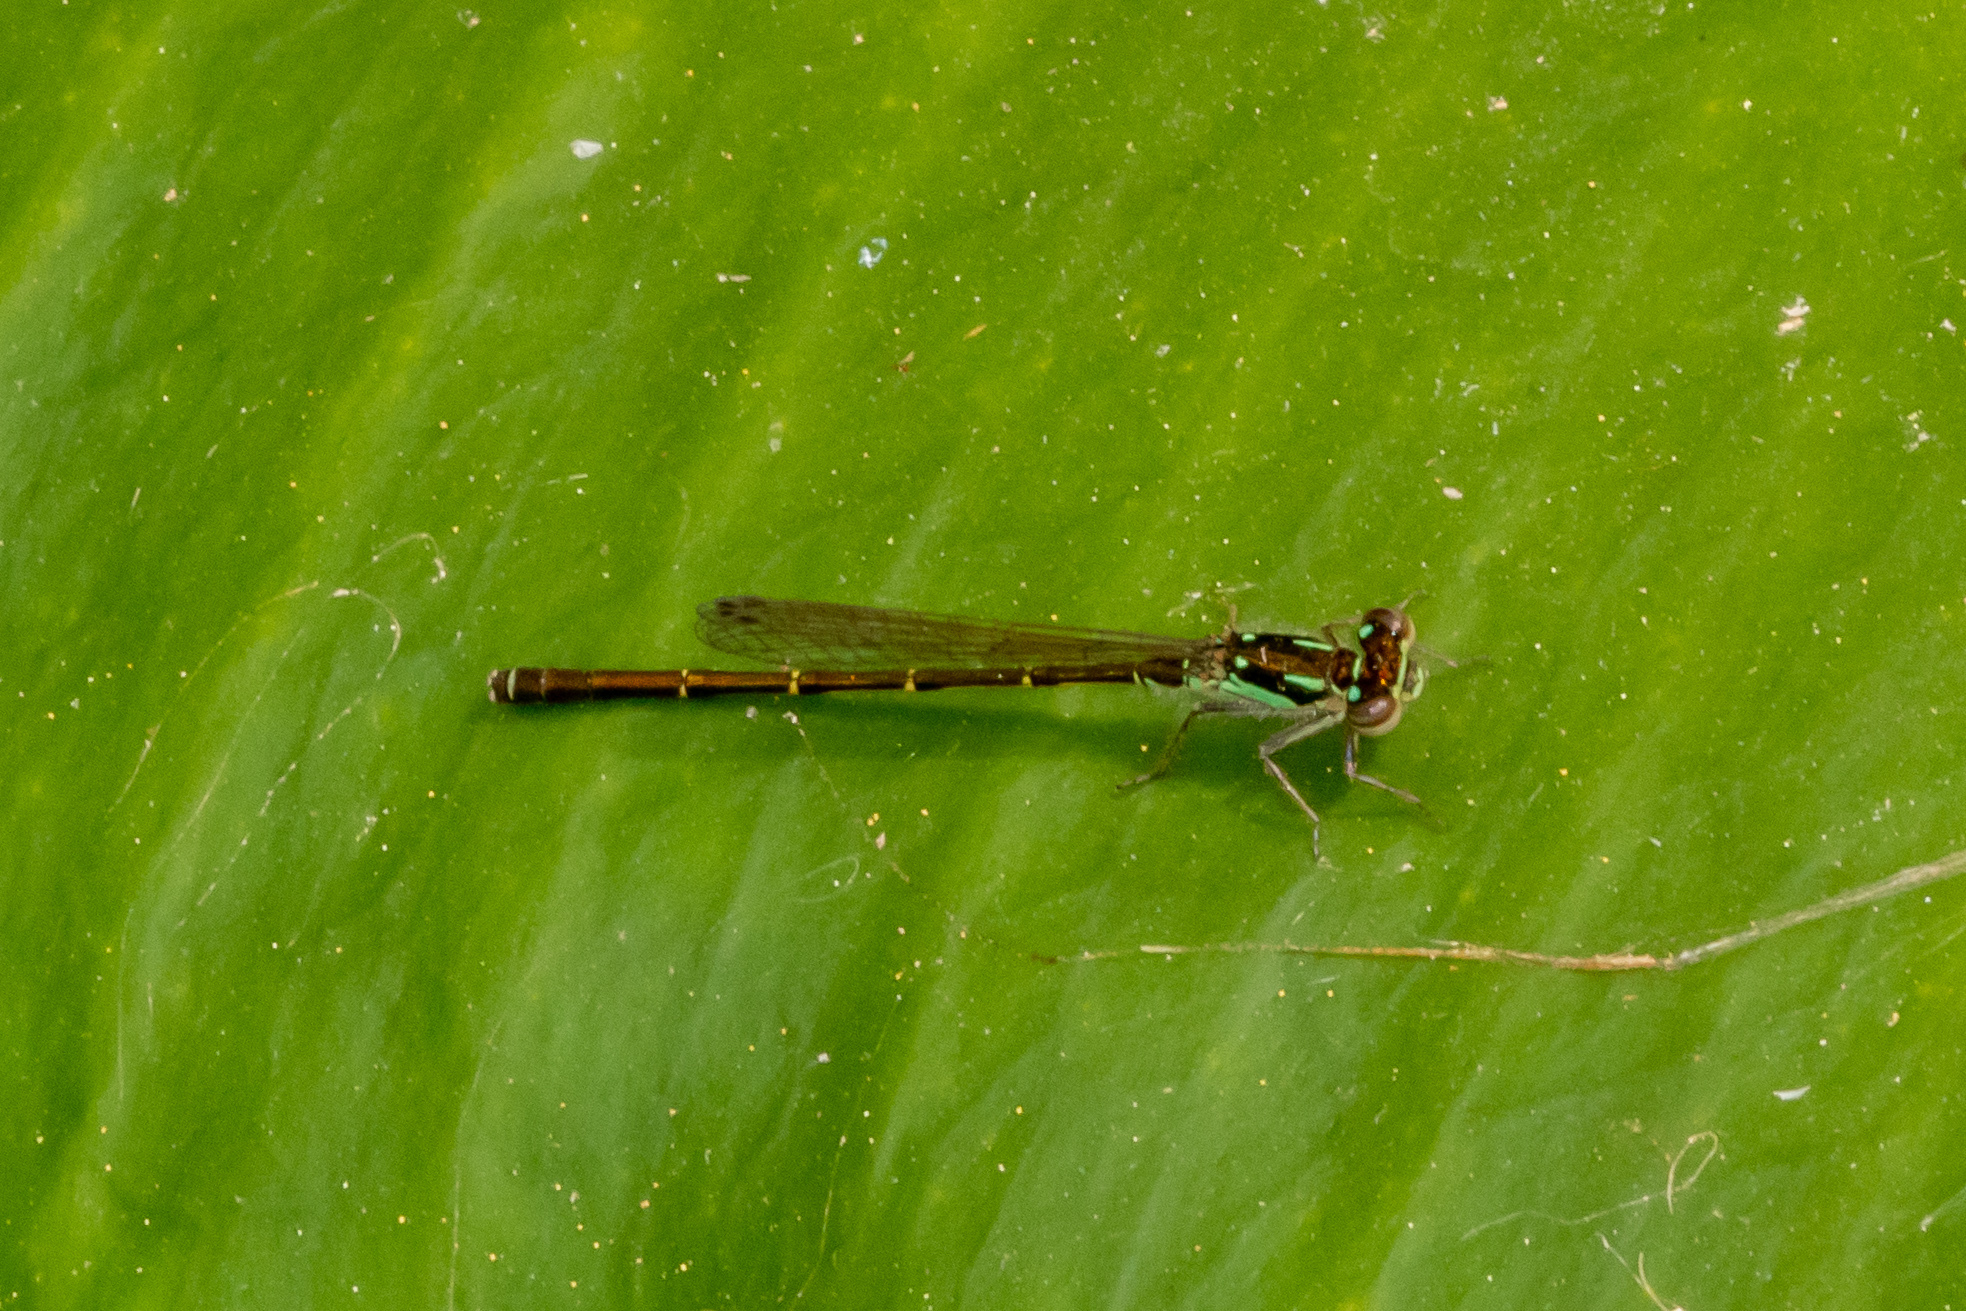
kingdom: Animalia
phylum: Arthropoda
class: Insecta
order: Odonata
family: Coenagrionidae
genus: Ischnura
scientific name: Ischnura posita
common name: Fragile forktail
